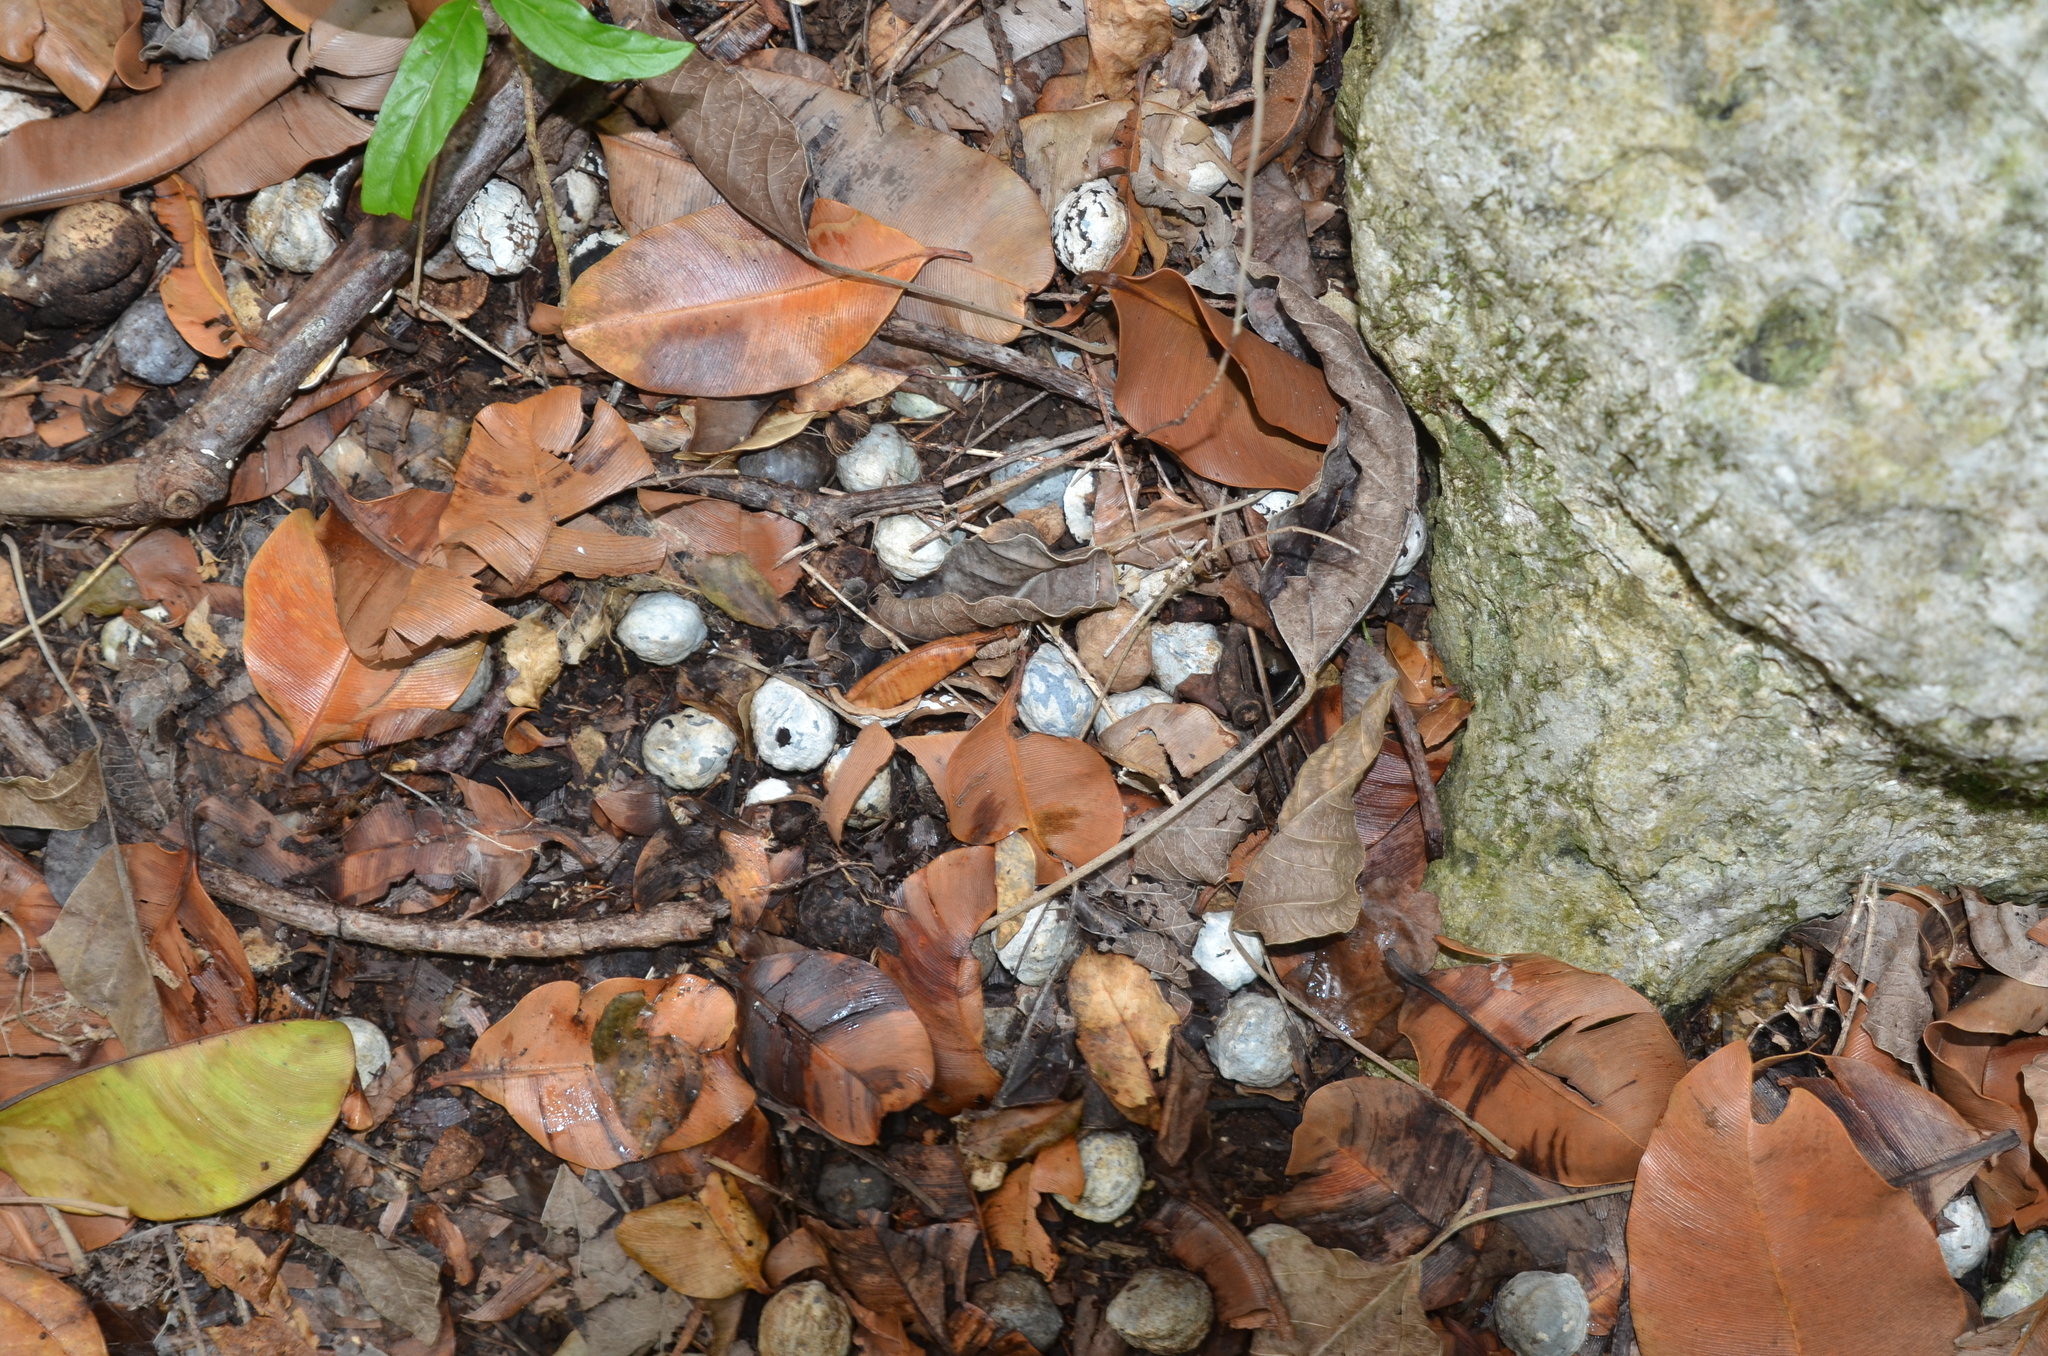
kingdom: Plantae
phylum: Tracheophyta
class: Magnoliopsida
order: Malpighiales
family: Euphorbiaceae
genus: Aleurites
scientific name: Aleurites moluccanus
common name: Candlenut tree
